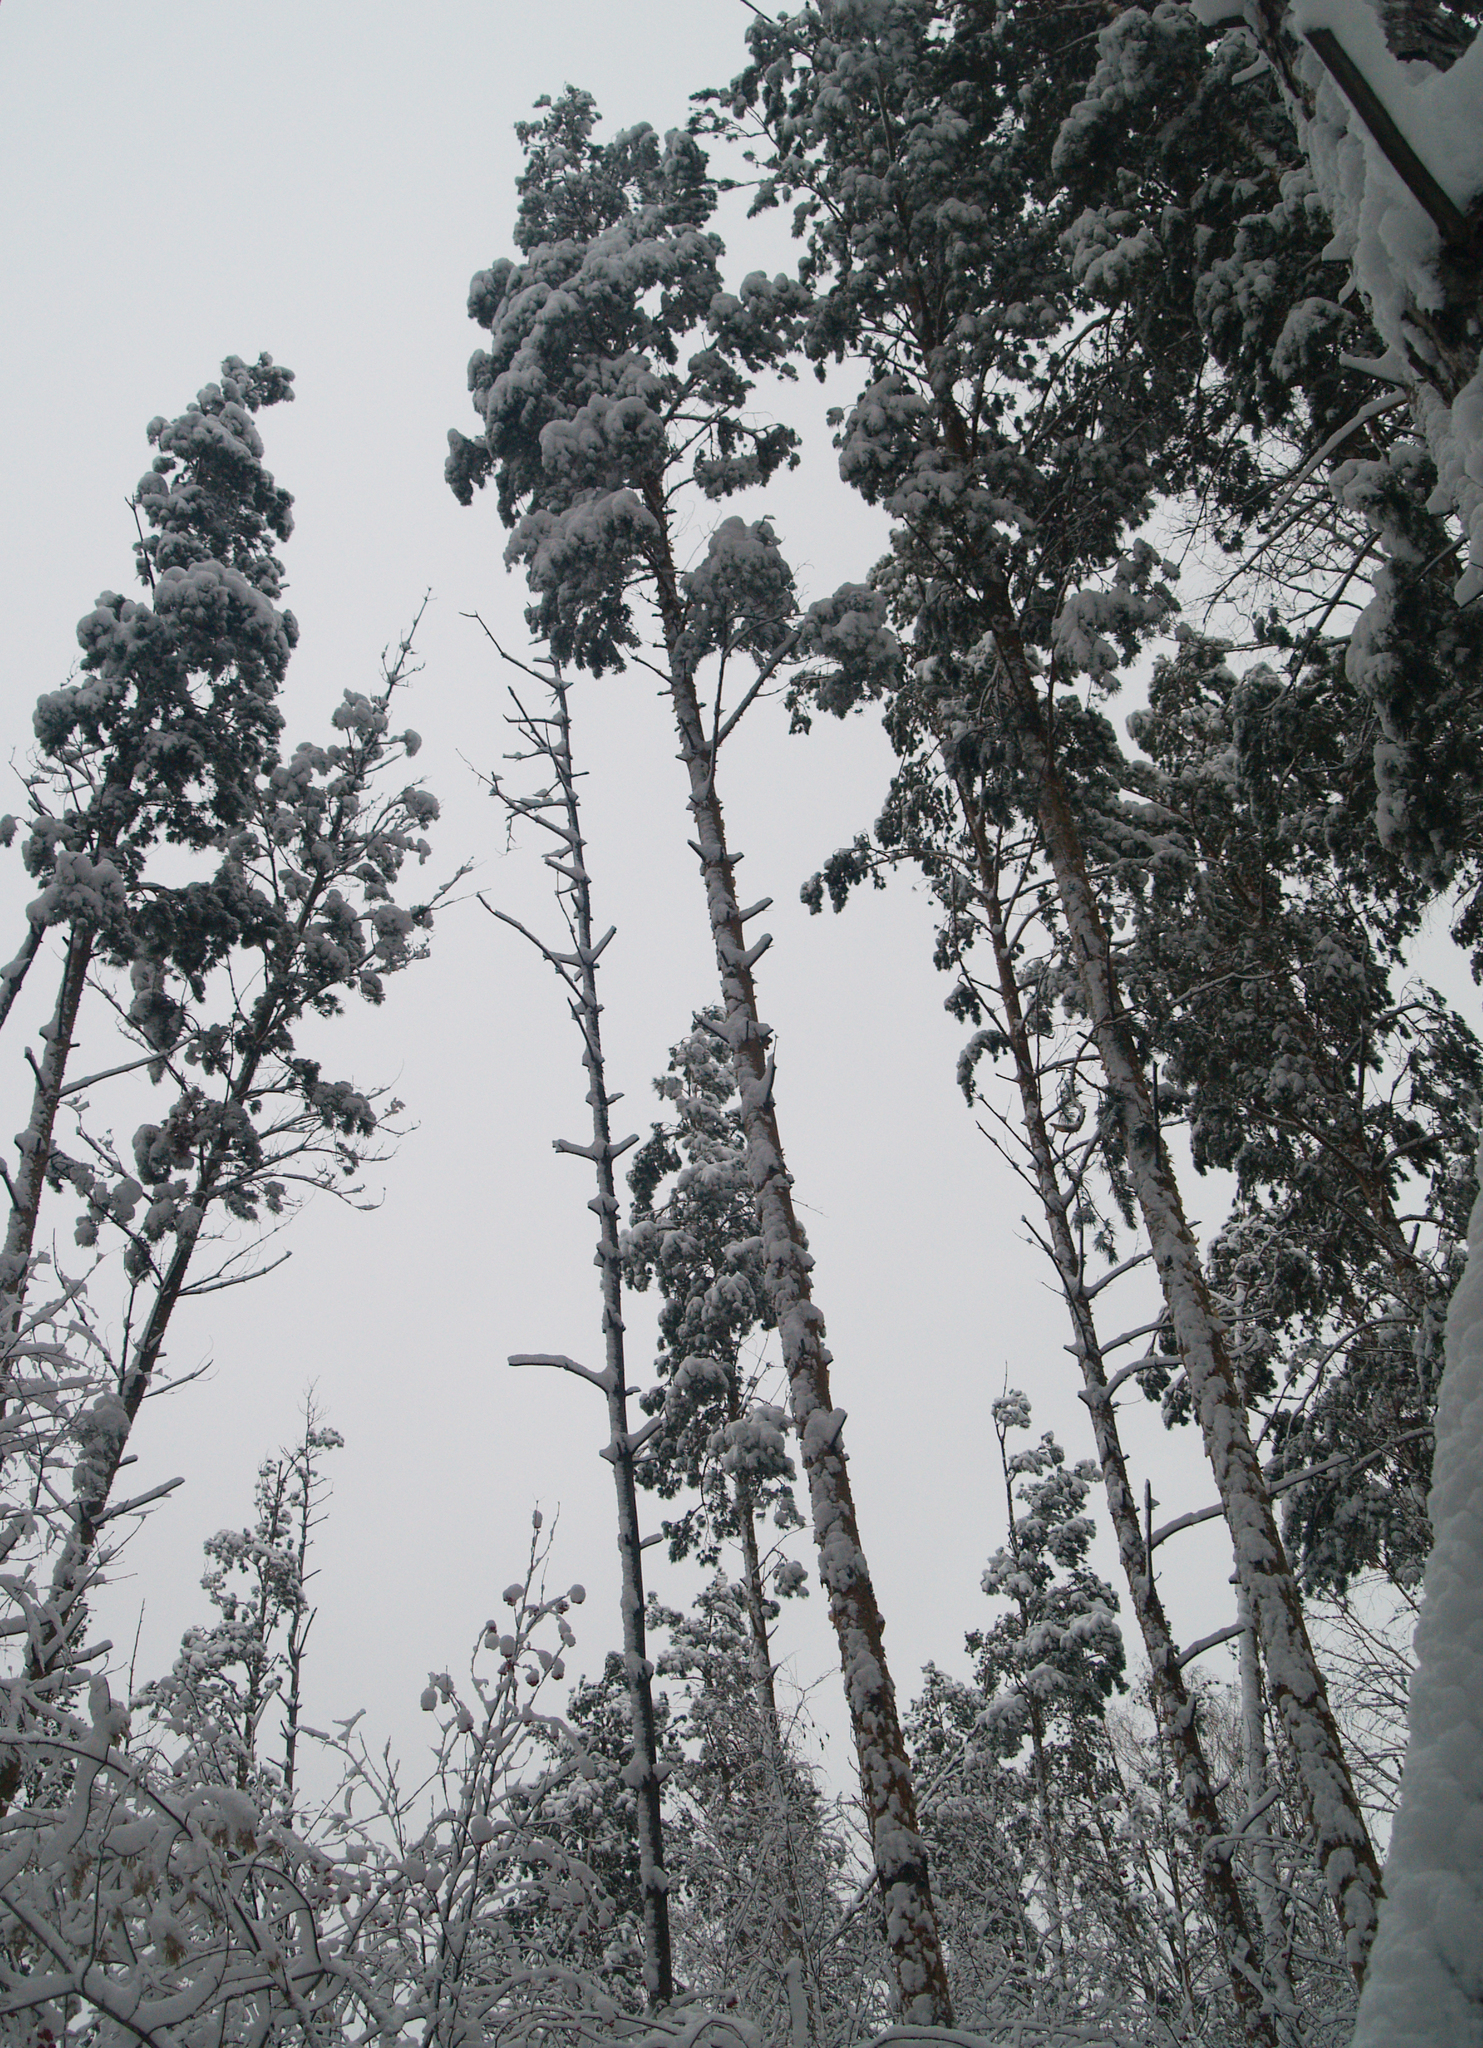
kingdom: Plantae
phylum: Tracheophyta
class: Pinopsida
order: Pinales
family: Pinaceae
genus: Pinus
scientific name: Pinus sylvestris
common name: Scots pine
